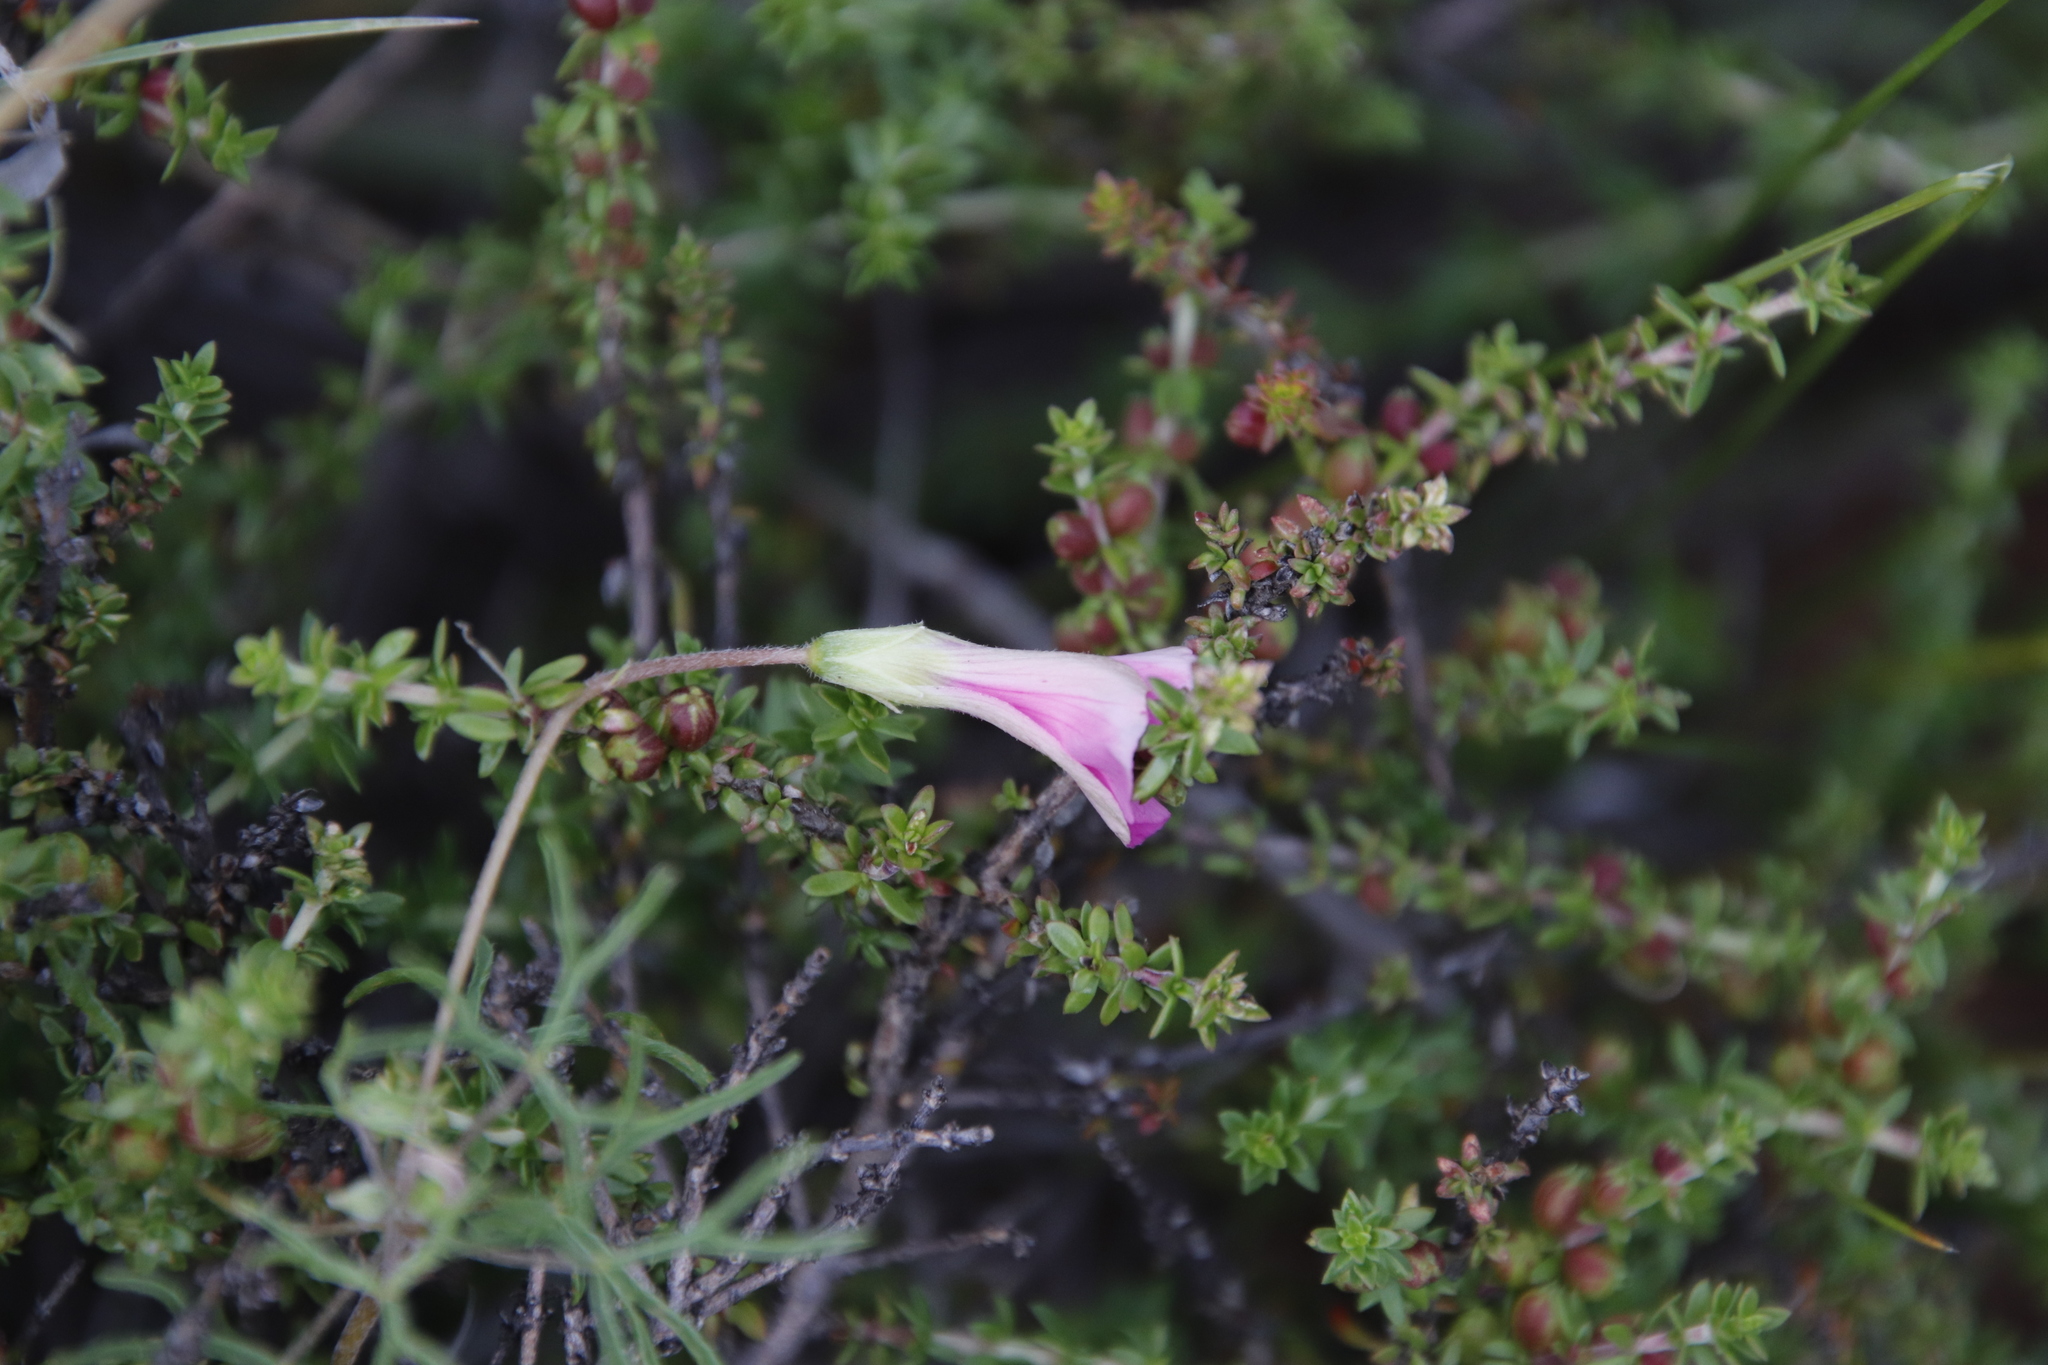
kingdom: Plantae
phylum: Tracheophyta
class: Magnoliopsida
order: Oxalidales
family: Oxalidaceae
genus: Oxalis
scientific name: Oxalis bifurca
